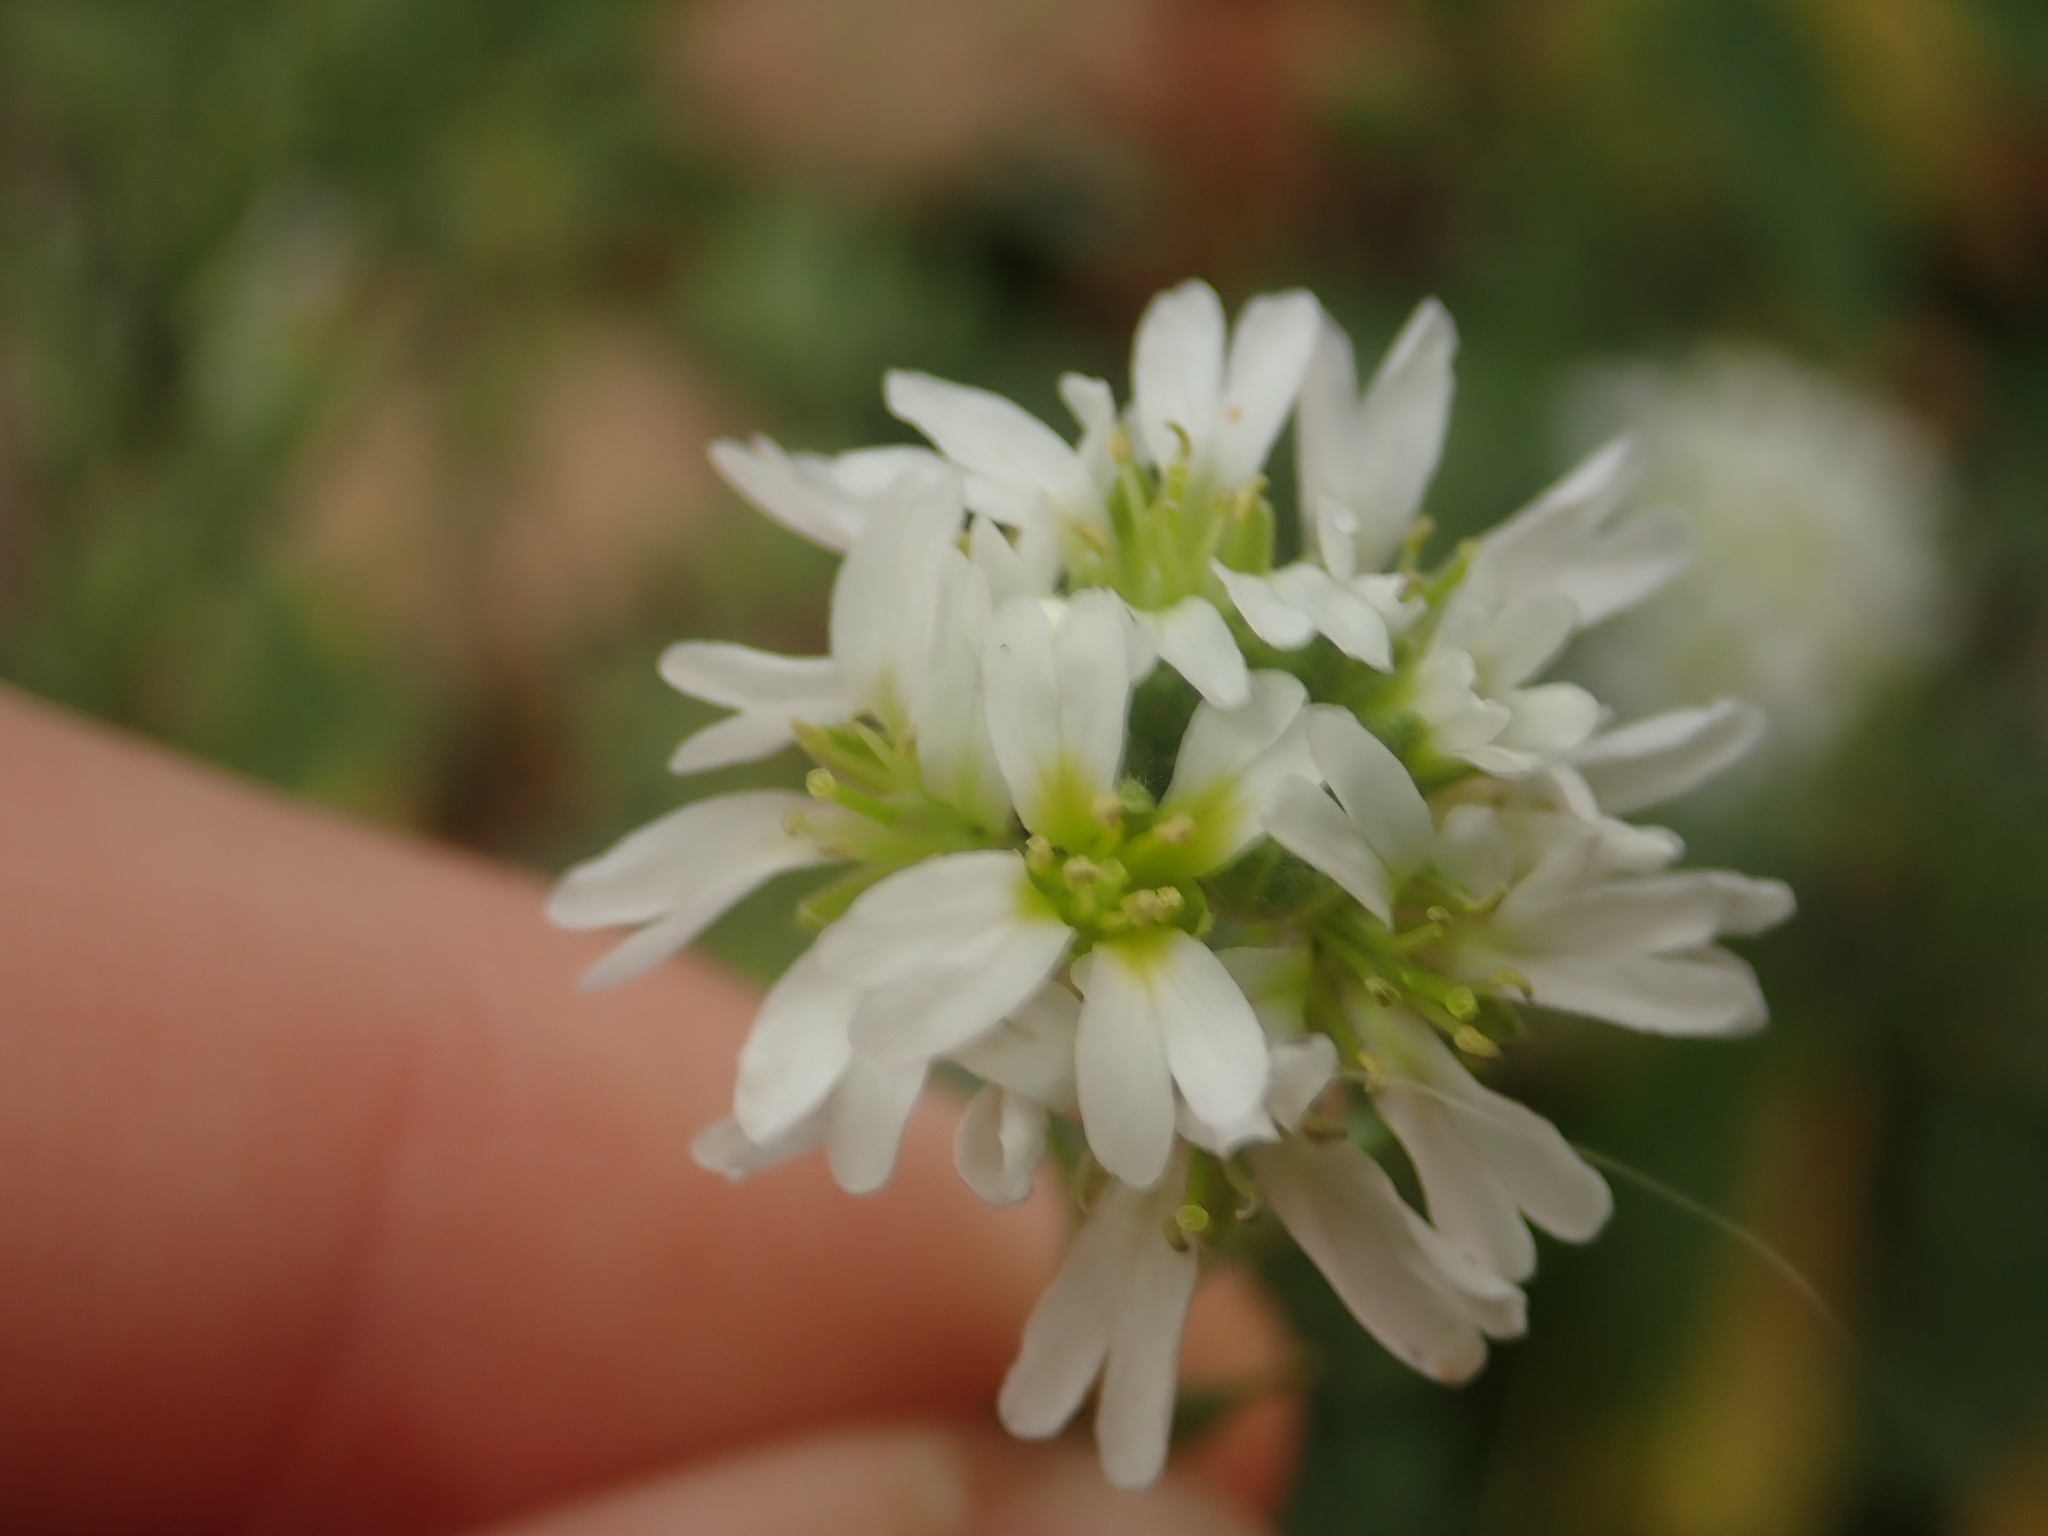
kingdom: Plantae
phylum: Tracheophyta
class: Magnoliopsida
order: Brassicales
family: Brassicaceae
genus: Berteroa
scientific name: Berteroa incana
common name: Hoary alison
